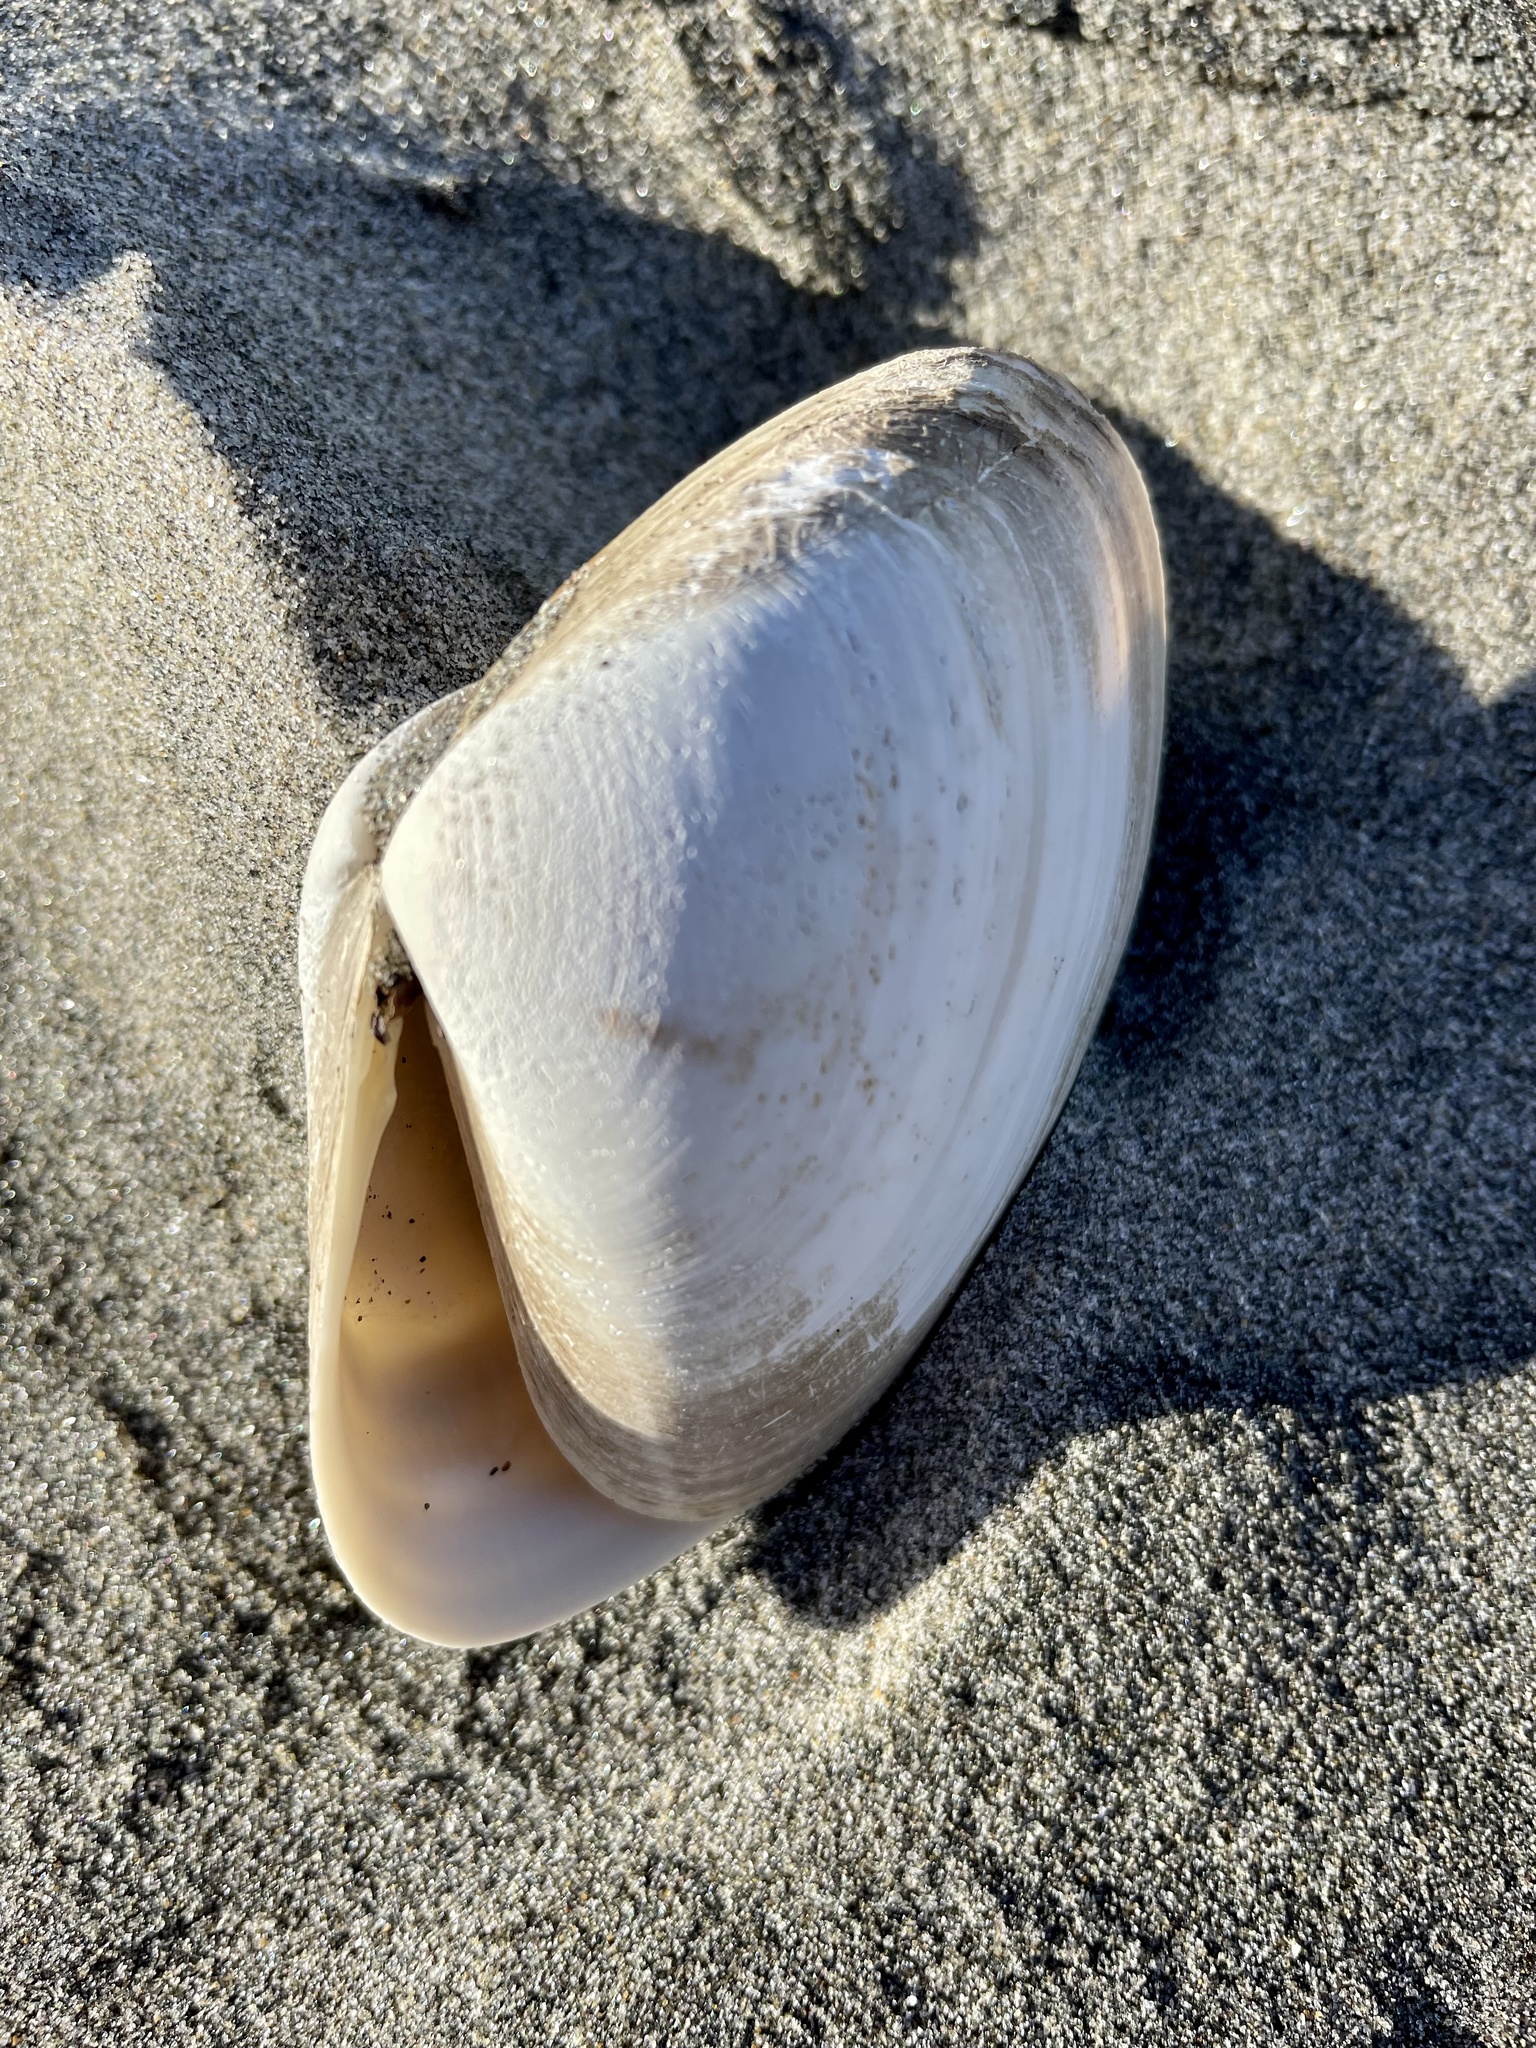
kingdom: Animalia
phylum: Mollusca
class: Bivalvia
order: Venerida
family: Veneridae
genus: Tivela
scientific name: Tivela stultorum
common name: Pismo clam
